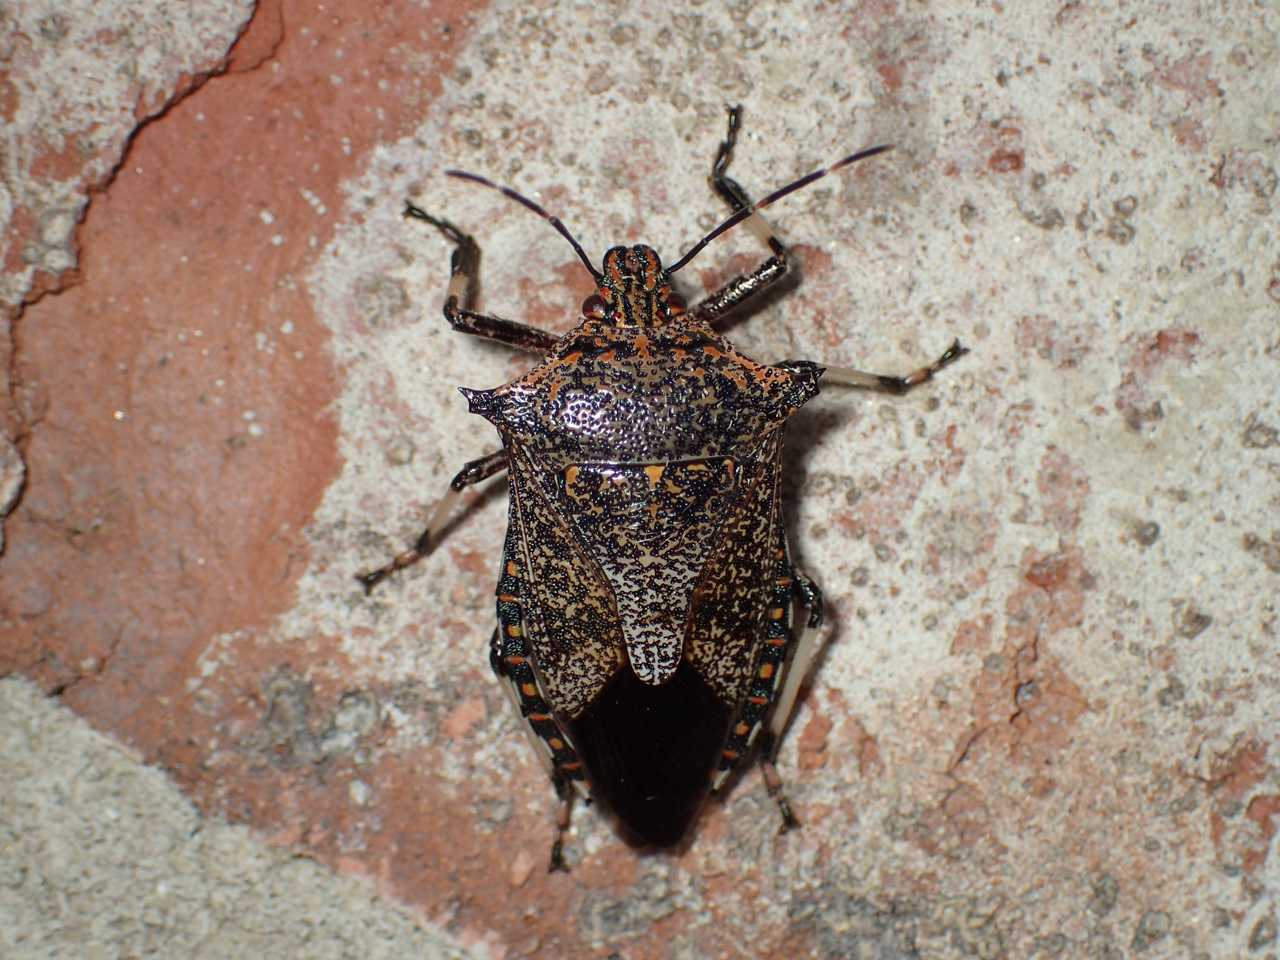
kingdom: Animalia
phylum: Arthropoda
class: Insecta
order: Hemiptera
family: Pentatomidae
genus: Alcaeorrhynchus
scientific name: Alcaeorrhynchus grandis
